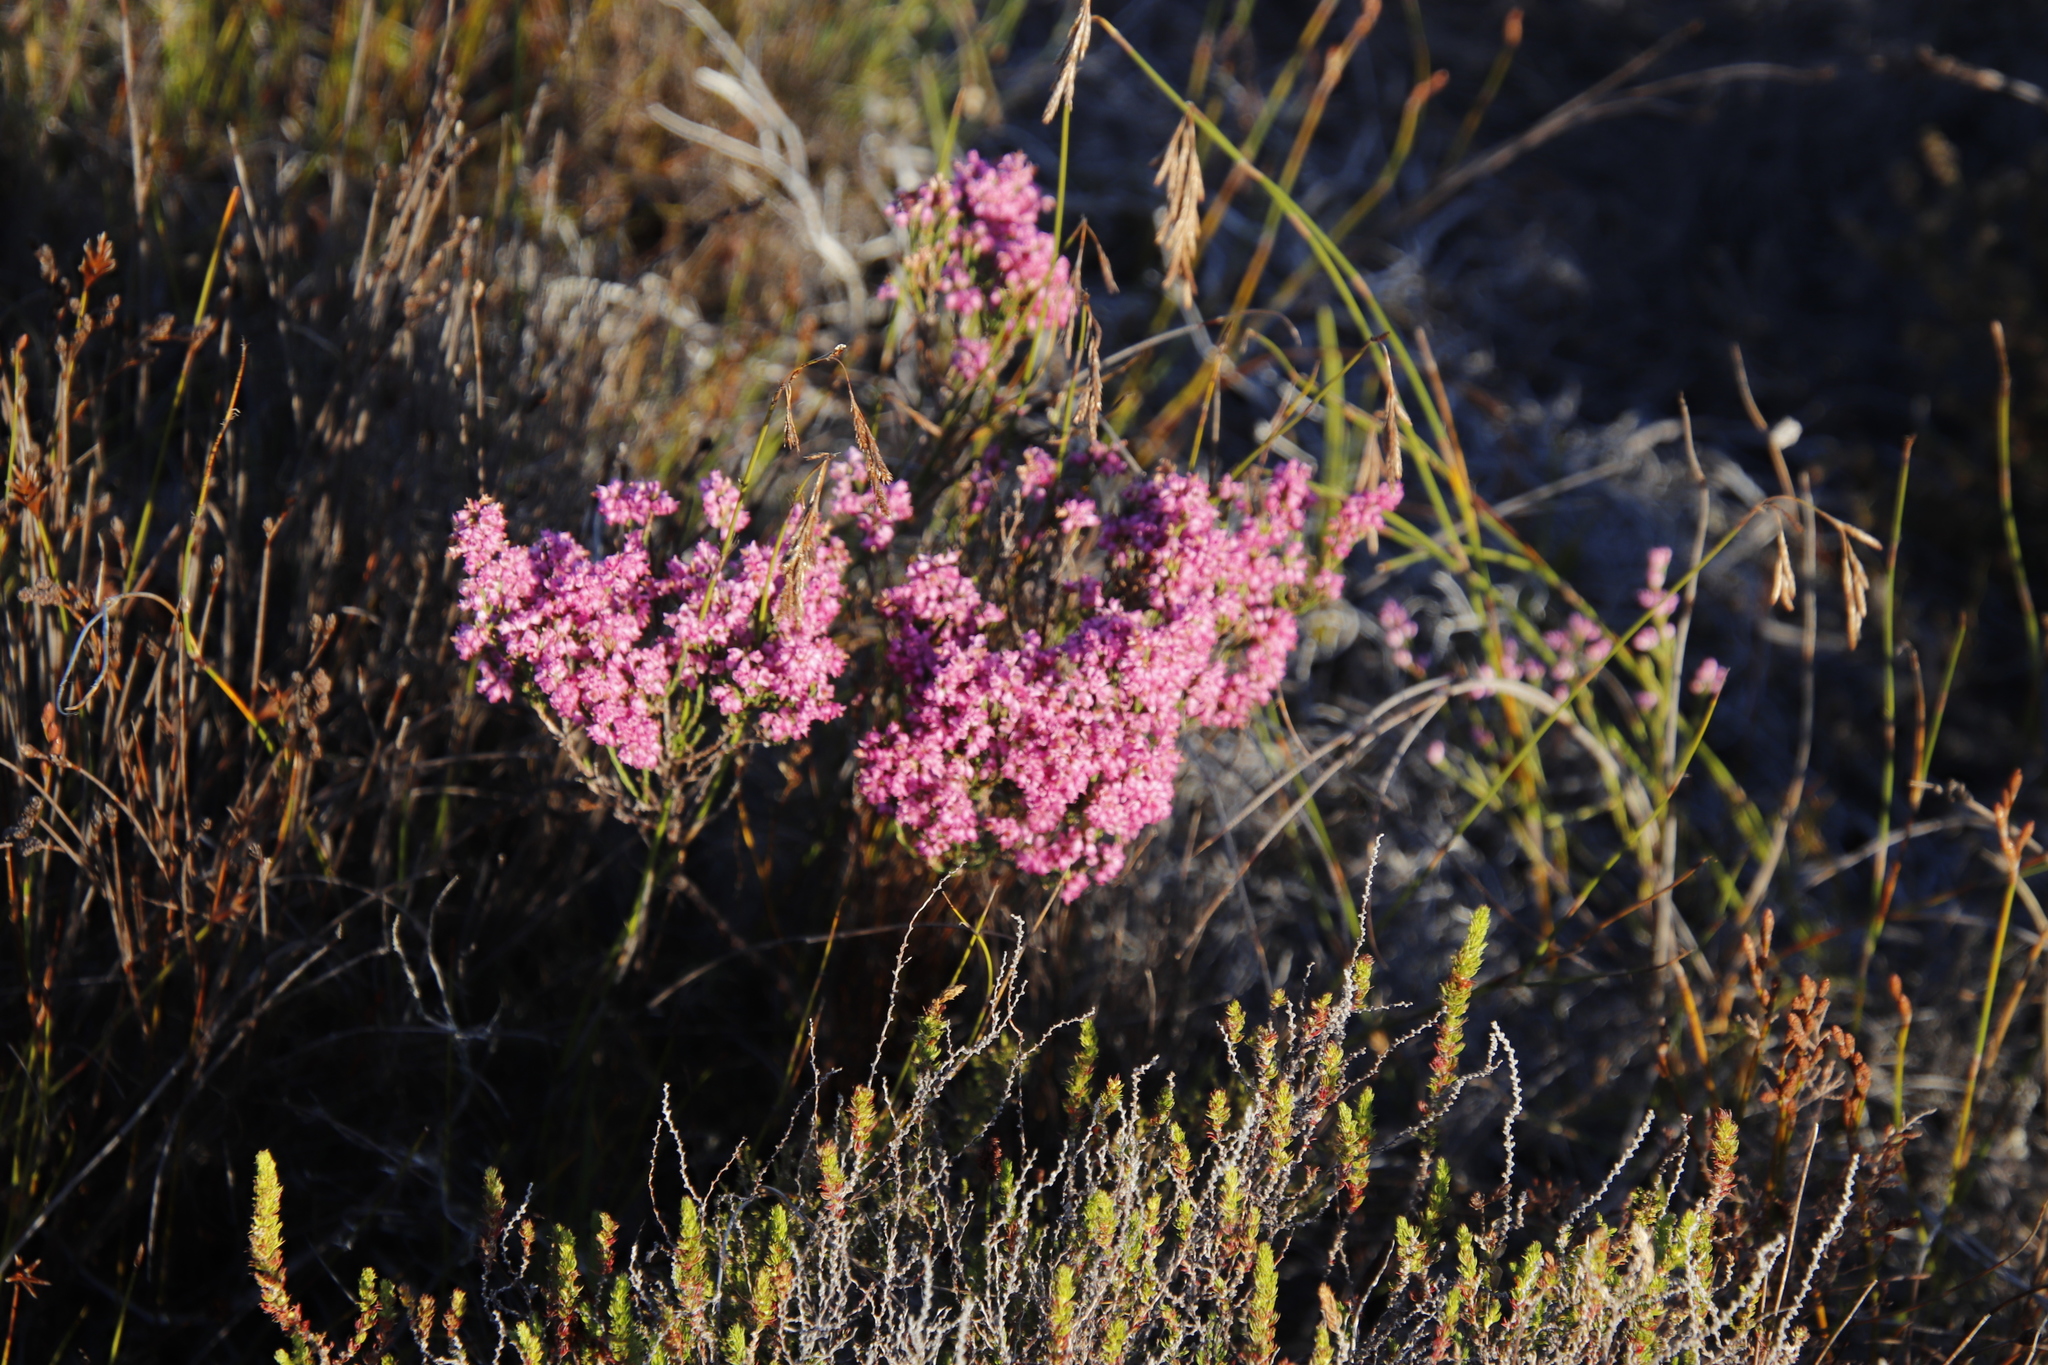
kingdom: Plantae
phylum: Tracheophyta
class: Magnoliopsida
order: Ericales
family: Ericaceae
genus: Erica
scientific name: Erica corifolia
